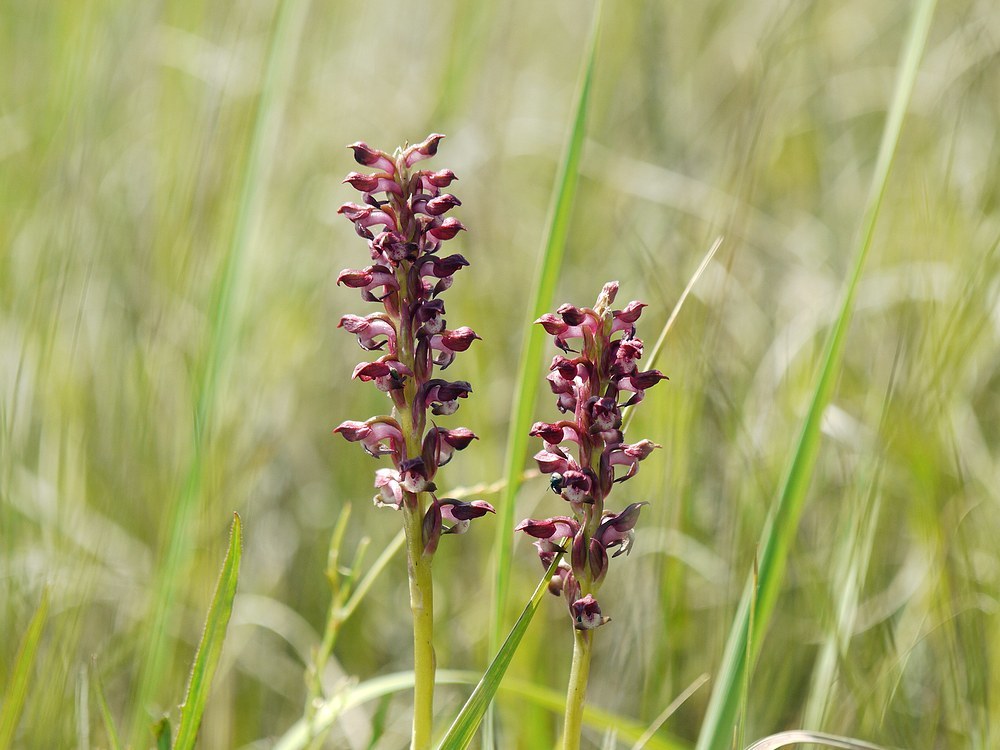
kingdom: Plantae
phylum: Tracheophyta
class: Liliopsida
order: Asparagales
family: Orchidaceae
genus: Anacamptis
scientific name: Anacamptis coriophora
